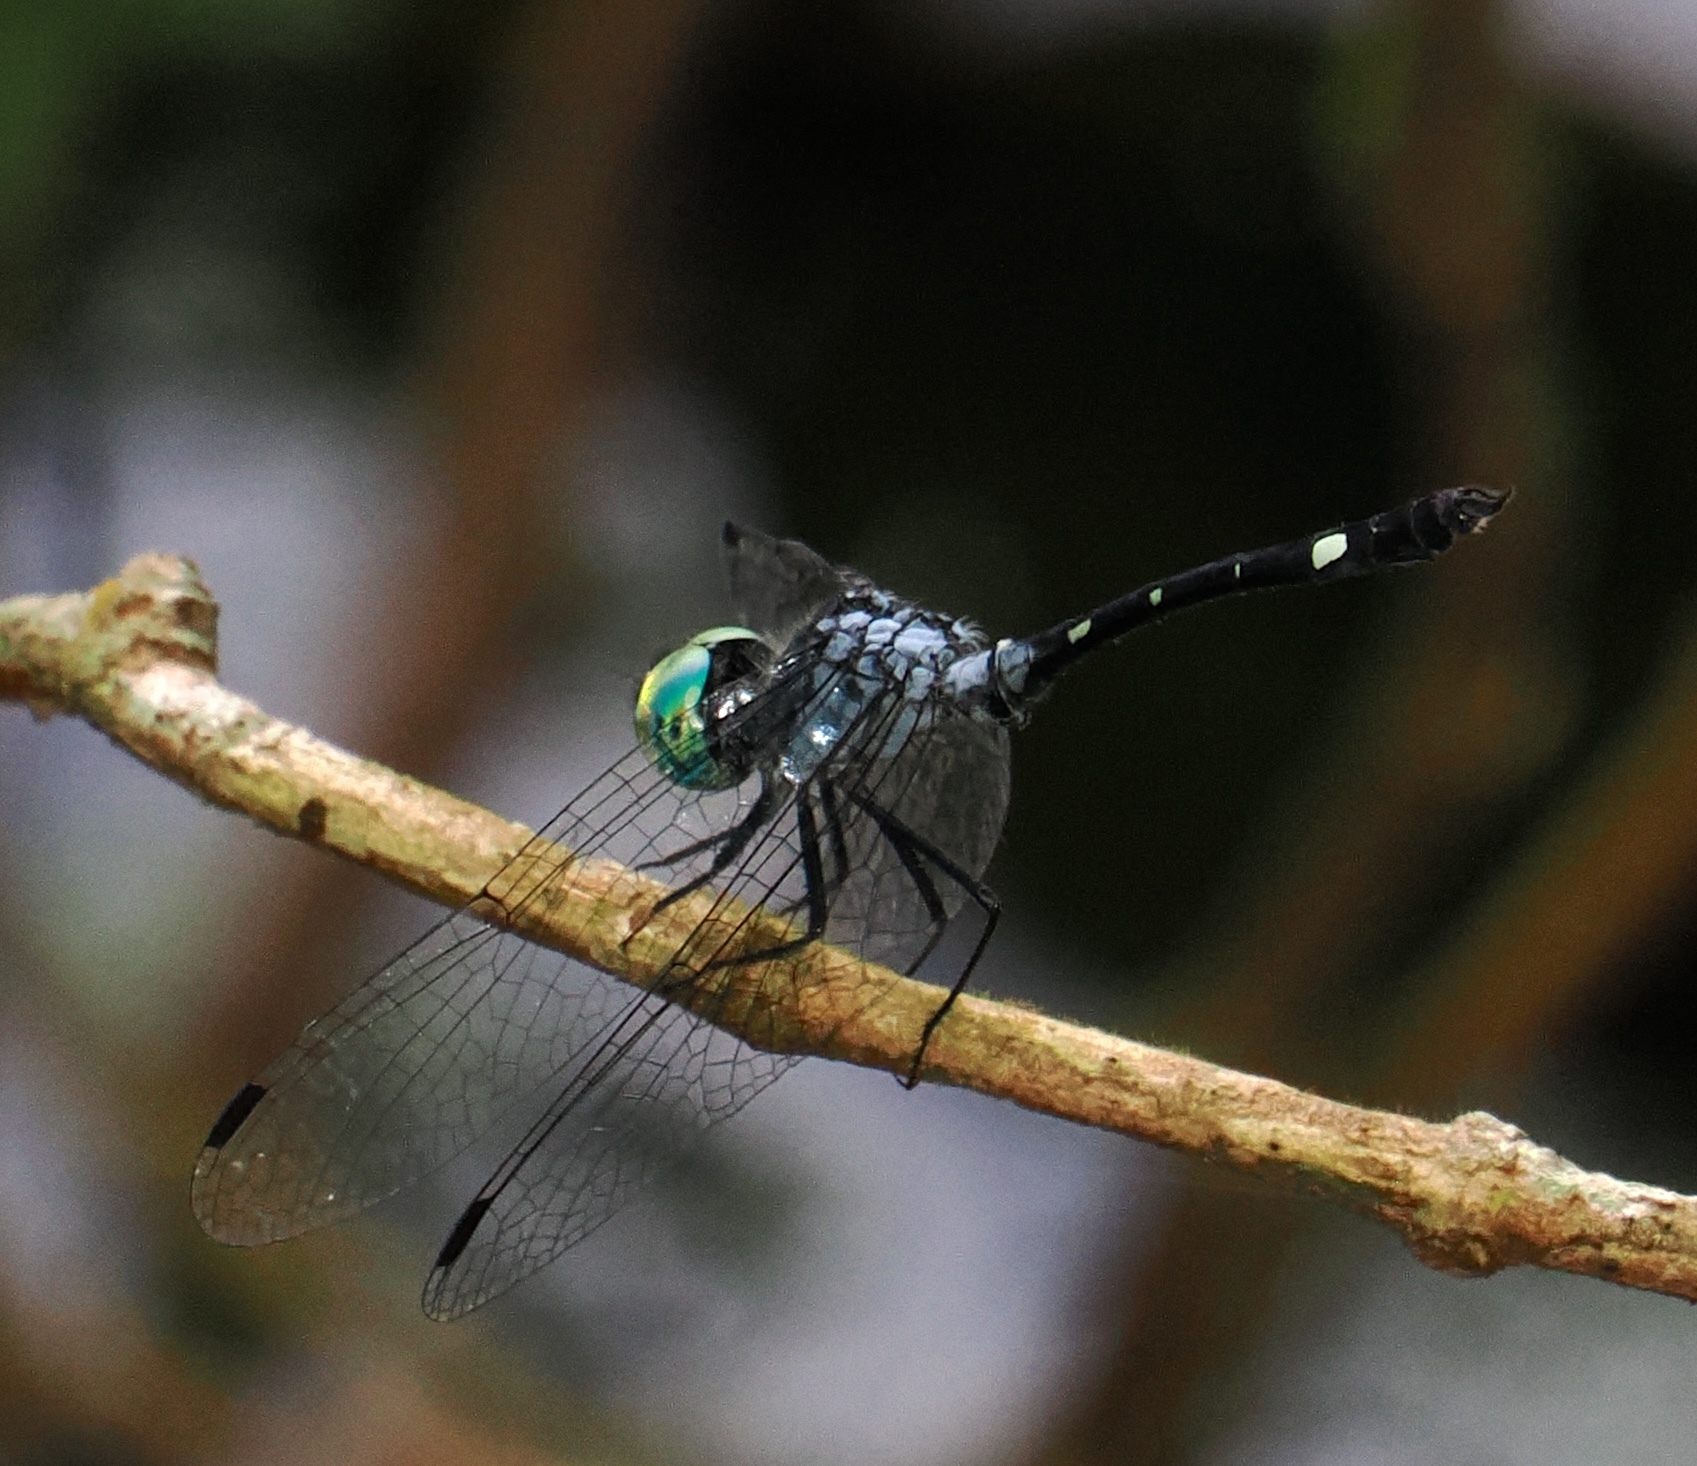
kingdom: Animalia
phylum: Arthropoda
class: Insecta
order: Odonata
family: Libellulidae
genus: Nephepeltia
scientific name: Nephepeltia phryne
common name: Spine-bellied dryad
